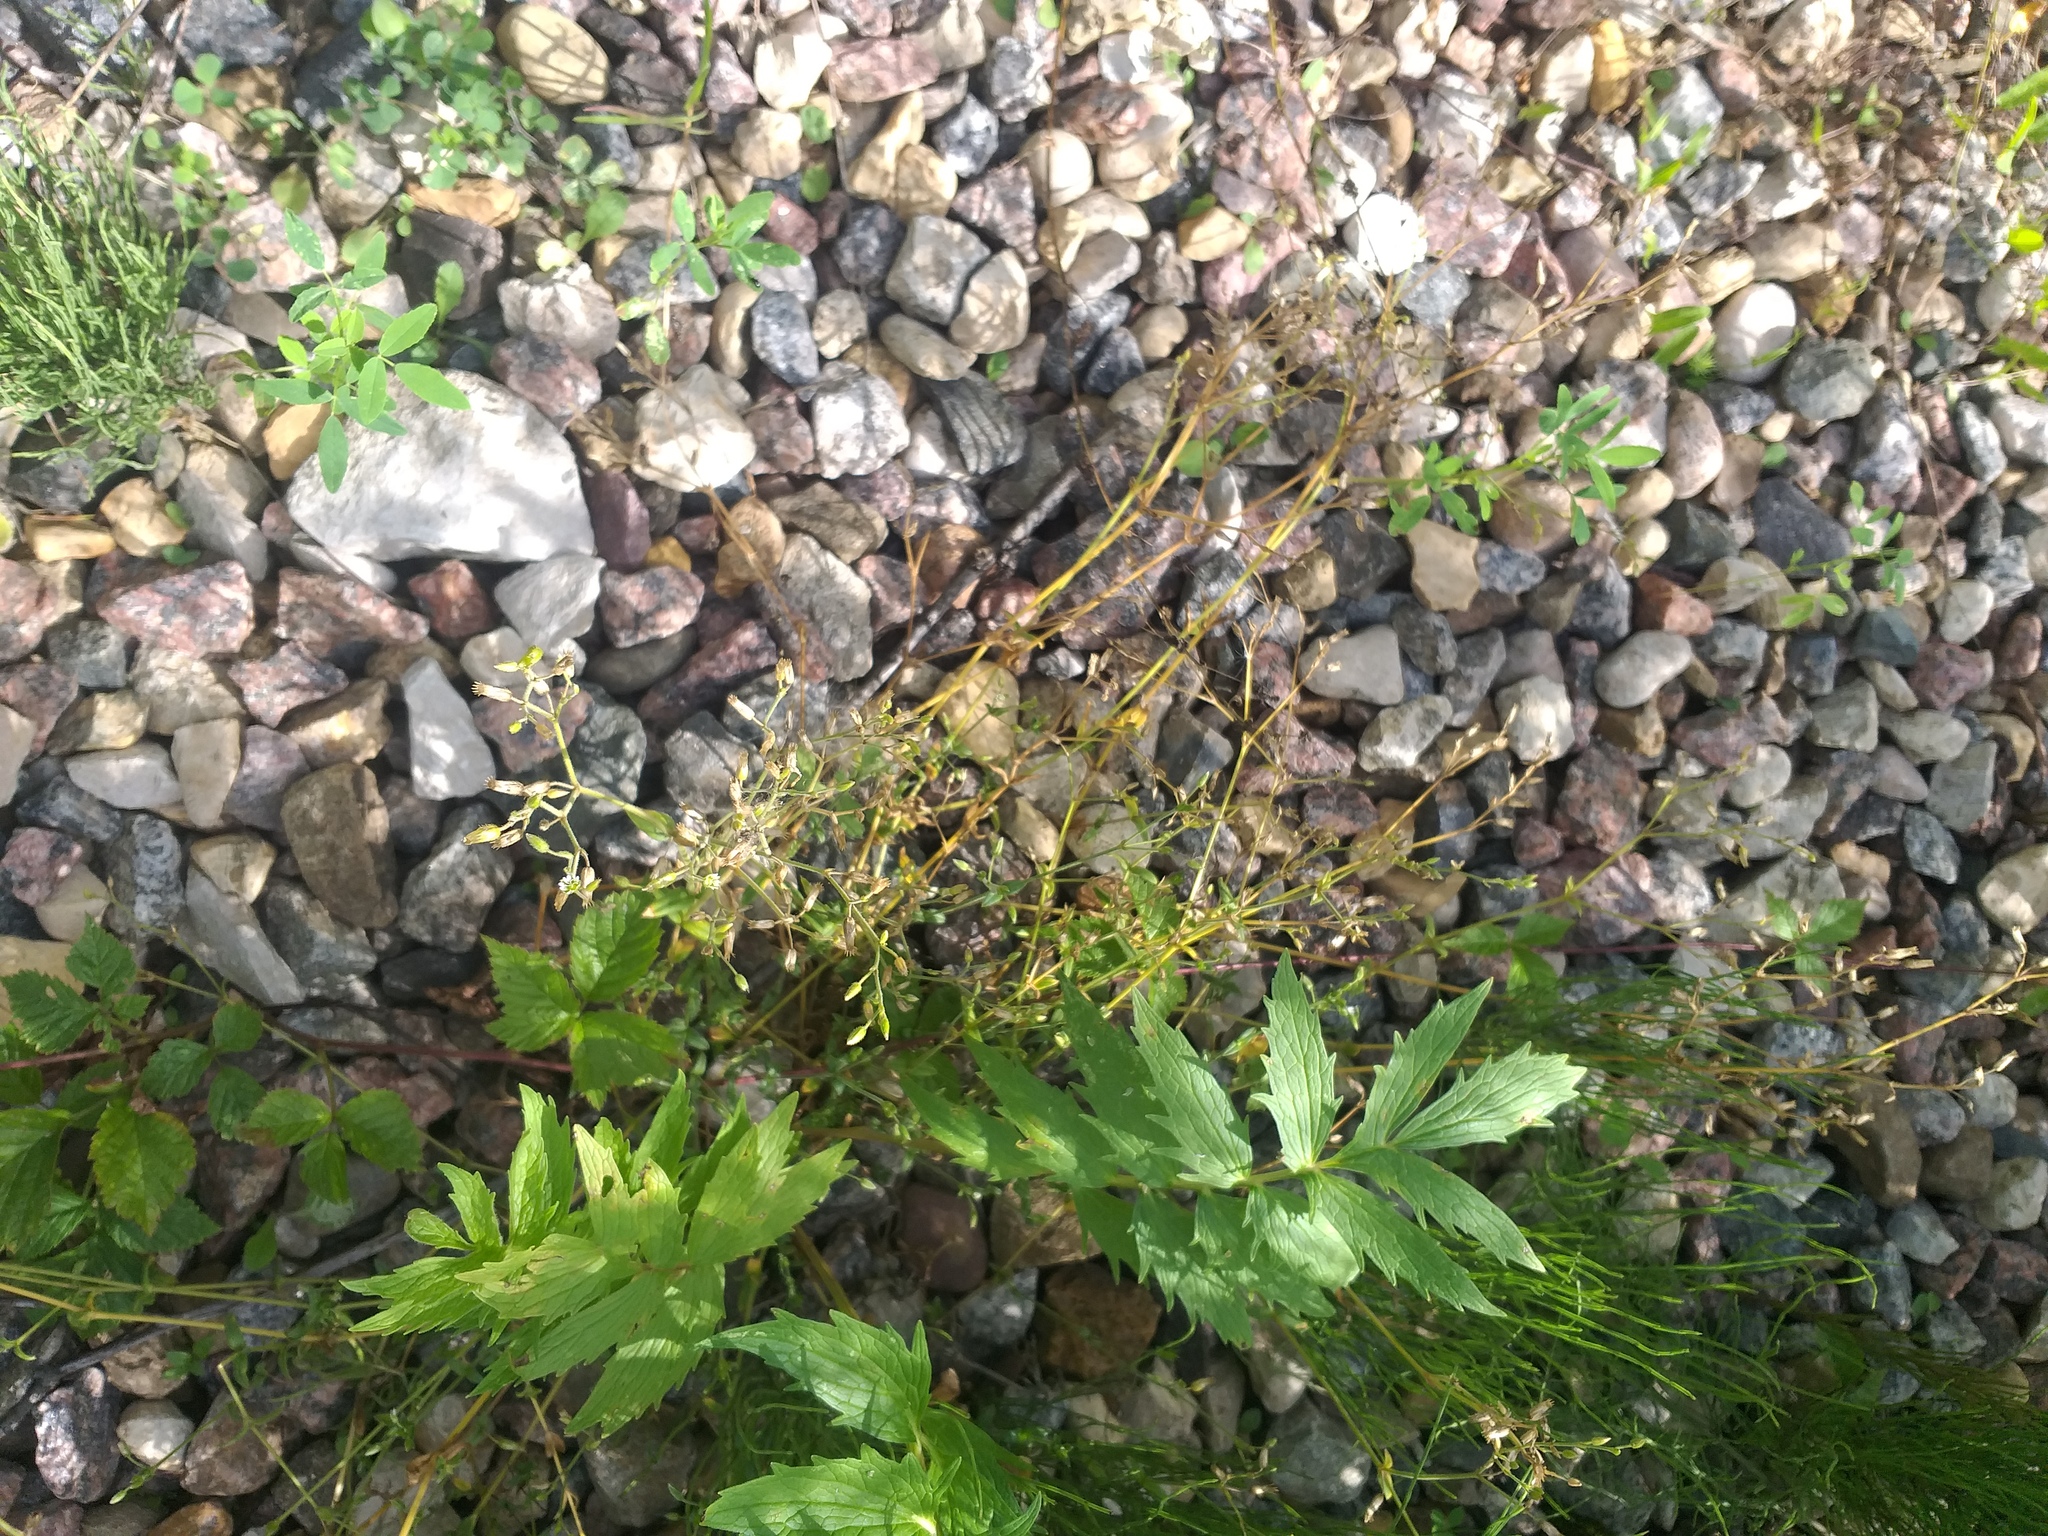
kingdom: Plantae
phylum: Tracheophyta
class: Magnoliopsida
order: Caryophyllales
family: Caryophyllaceae
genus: Cerastium
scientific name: Cerastium holosteoides
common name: Big chickweed
